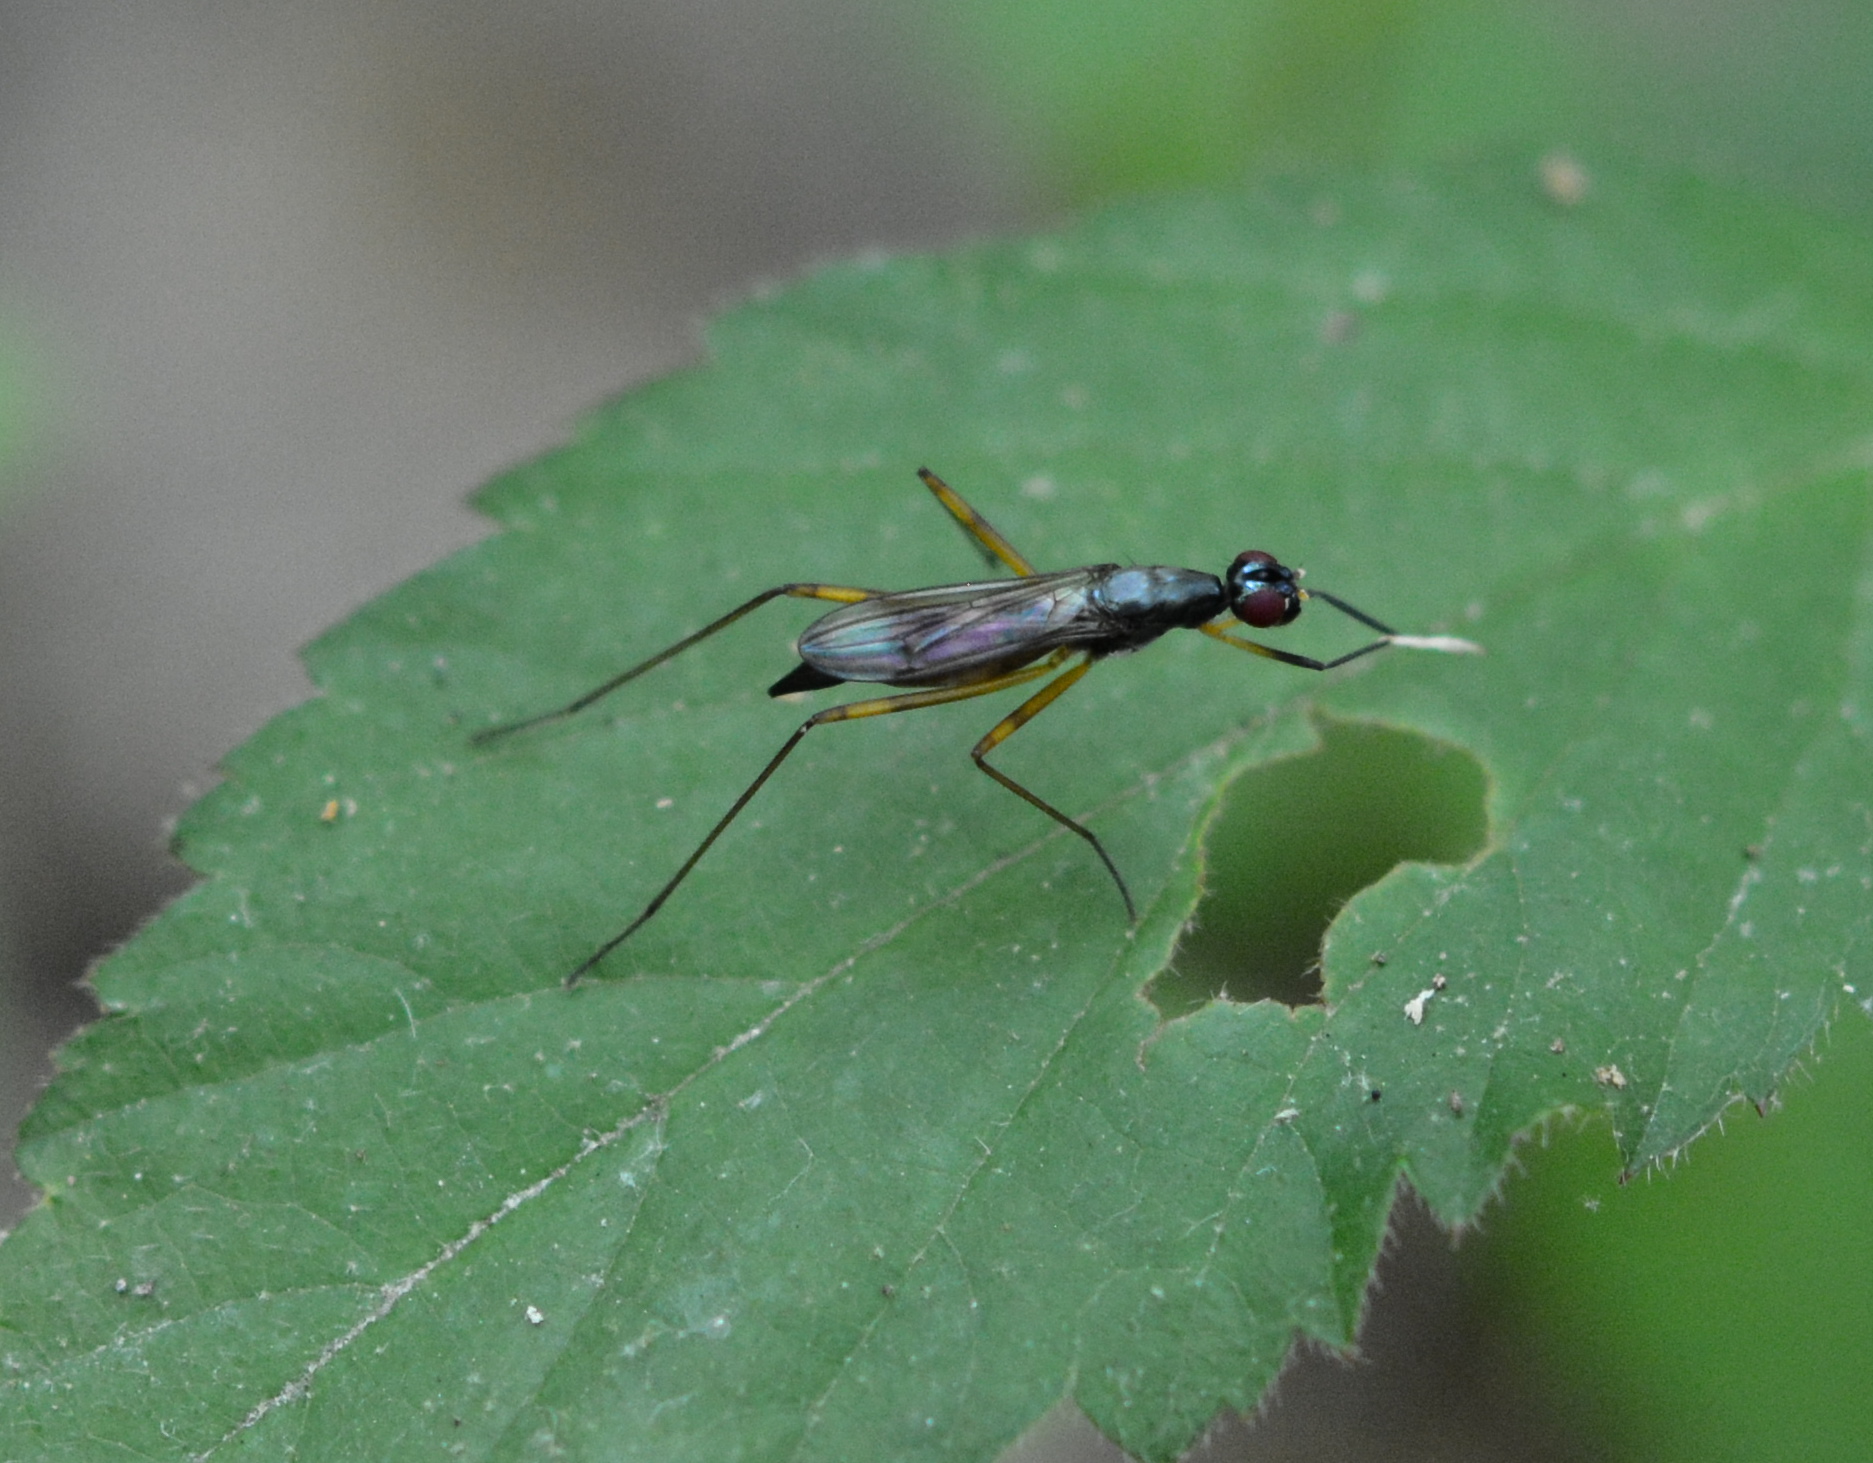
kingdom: Animalia
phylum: Arthropoda
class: Insecta
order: Diptera
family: Micropezidae
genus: Rainieria
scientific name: Rainieria antennaepes
